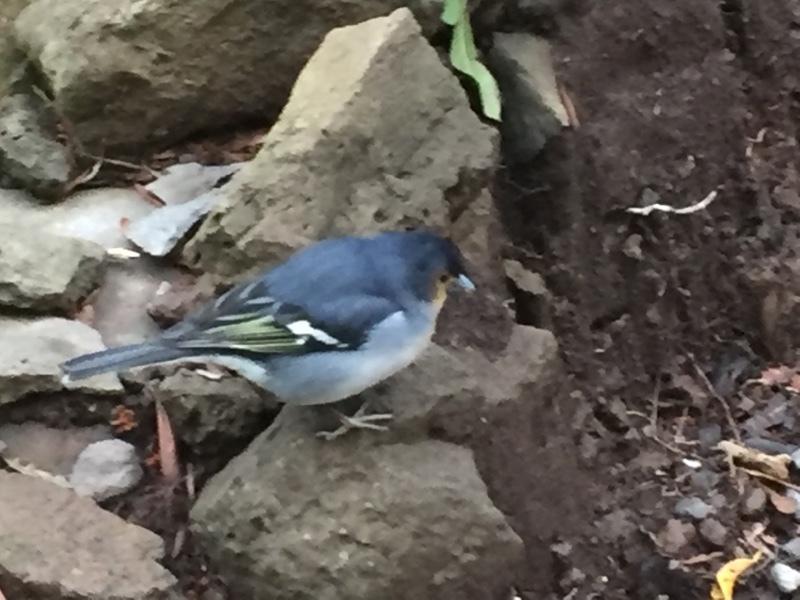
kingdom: Animalia
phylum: Chordata
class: Aves
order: Passeriformes
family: Fringillidae
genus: Fringilla
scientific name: Fringilla canariensis
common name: Canary islands chaffinch
